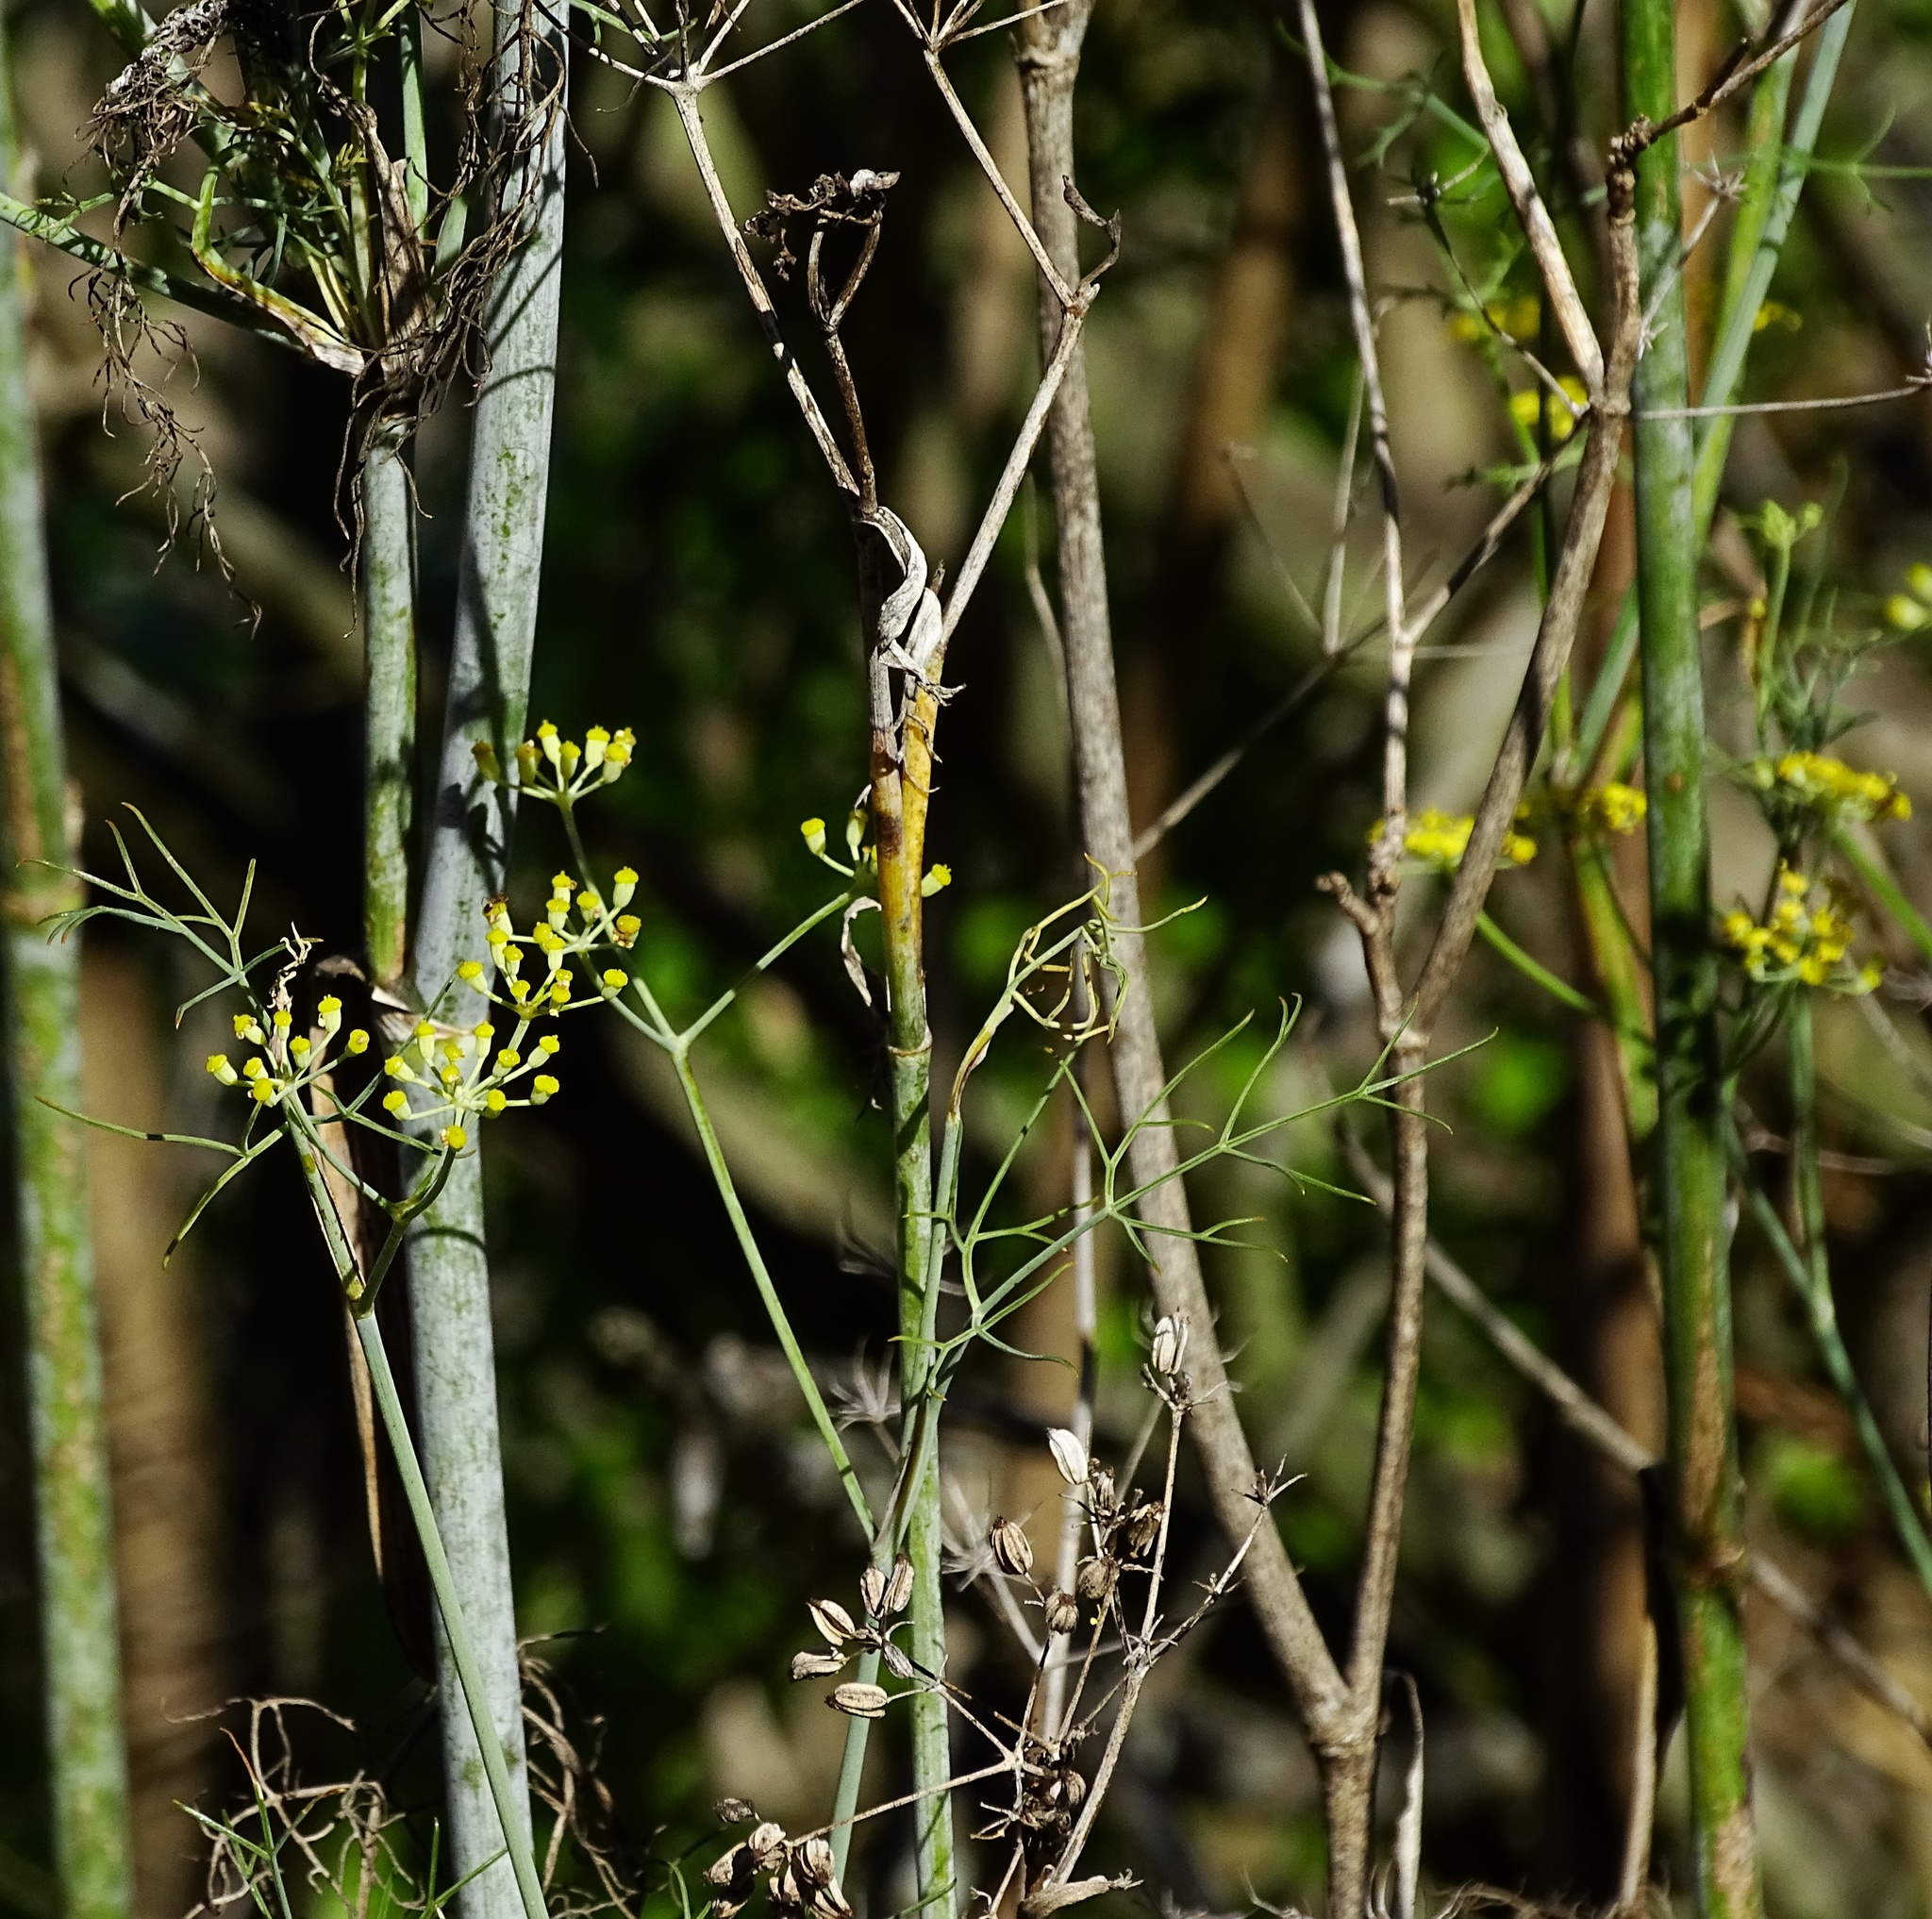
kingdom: Plantae
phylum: Tracheophyta
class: Magnoliopsida
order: Apiales
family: Apiaceae
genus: Foeniculum
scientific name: Foeniculum vulgare
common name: Fennel
